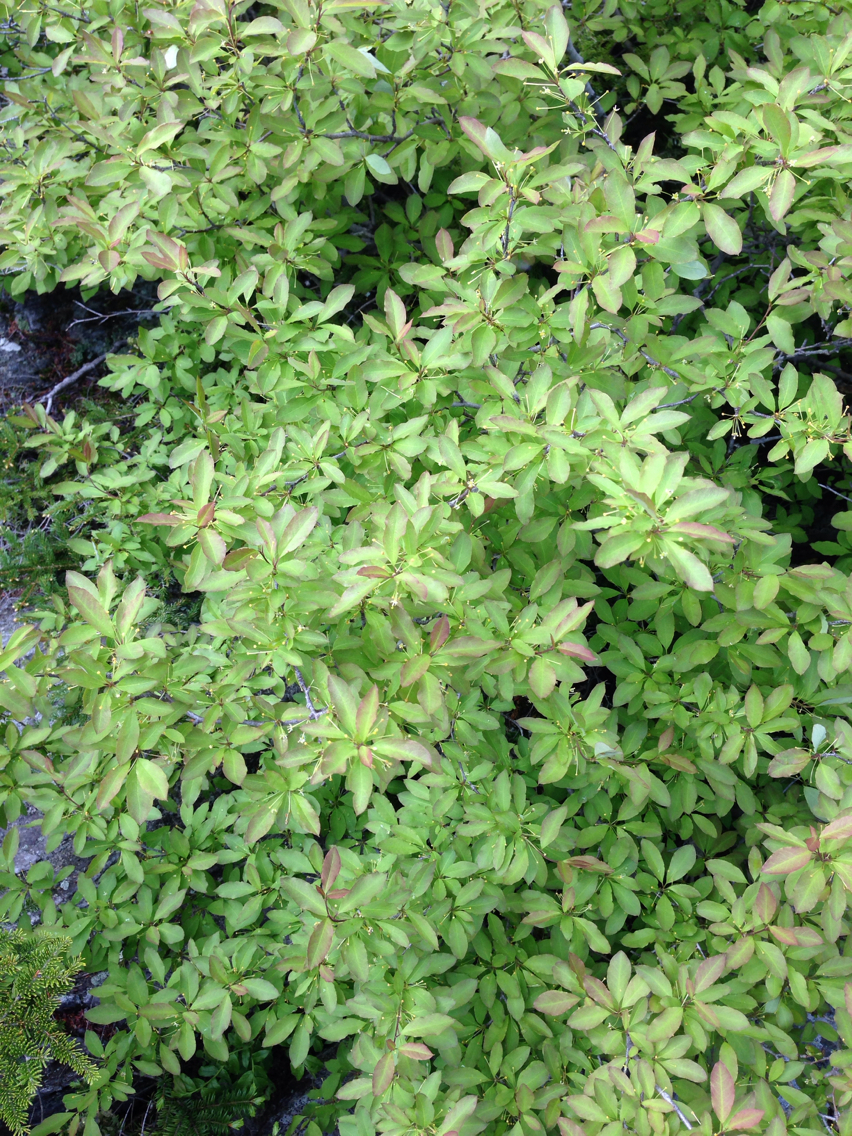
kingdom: Plantae
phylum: Tracheophyta
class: Magnoliopsida
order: Aquifoliales
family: Aquifoliaceae
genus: Ilex
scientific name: Ilex mucronata
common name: Catberry
